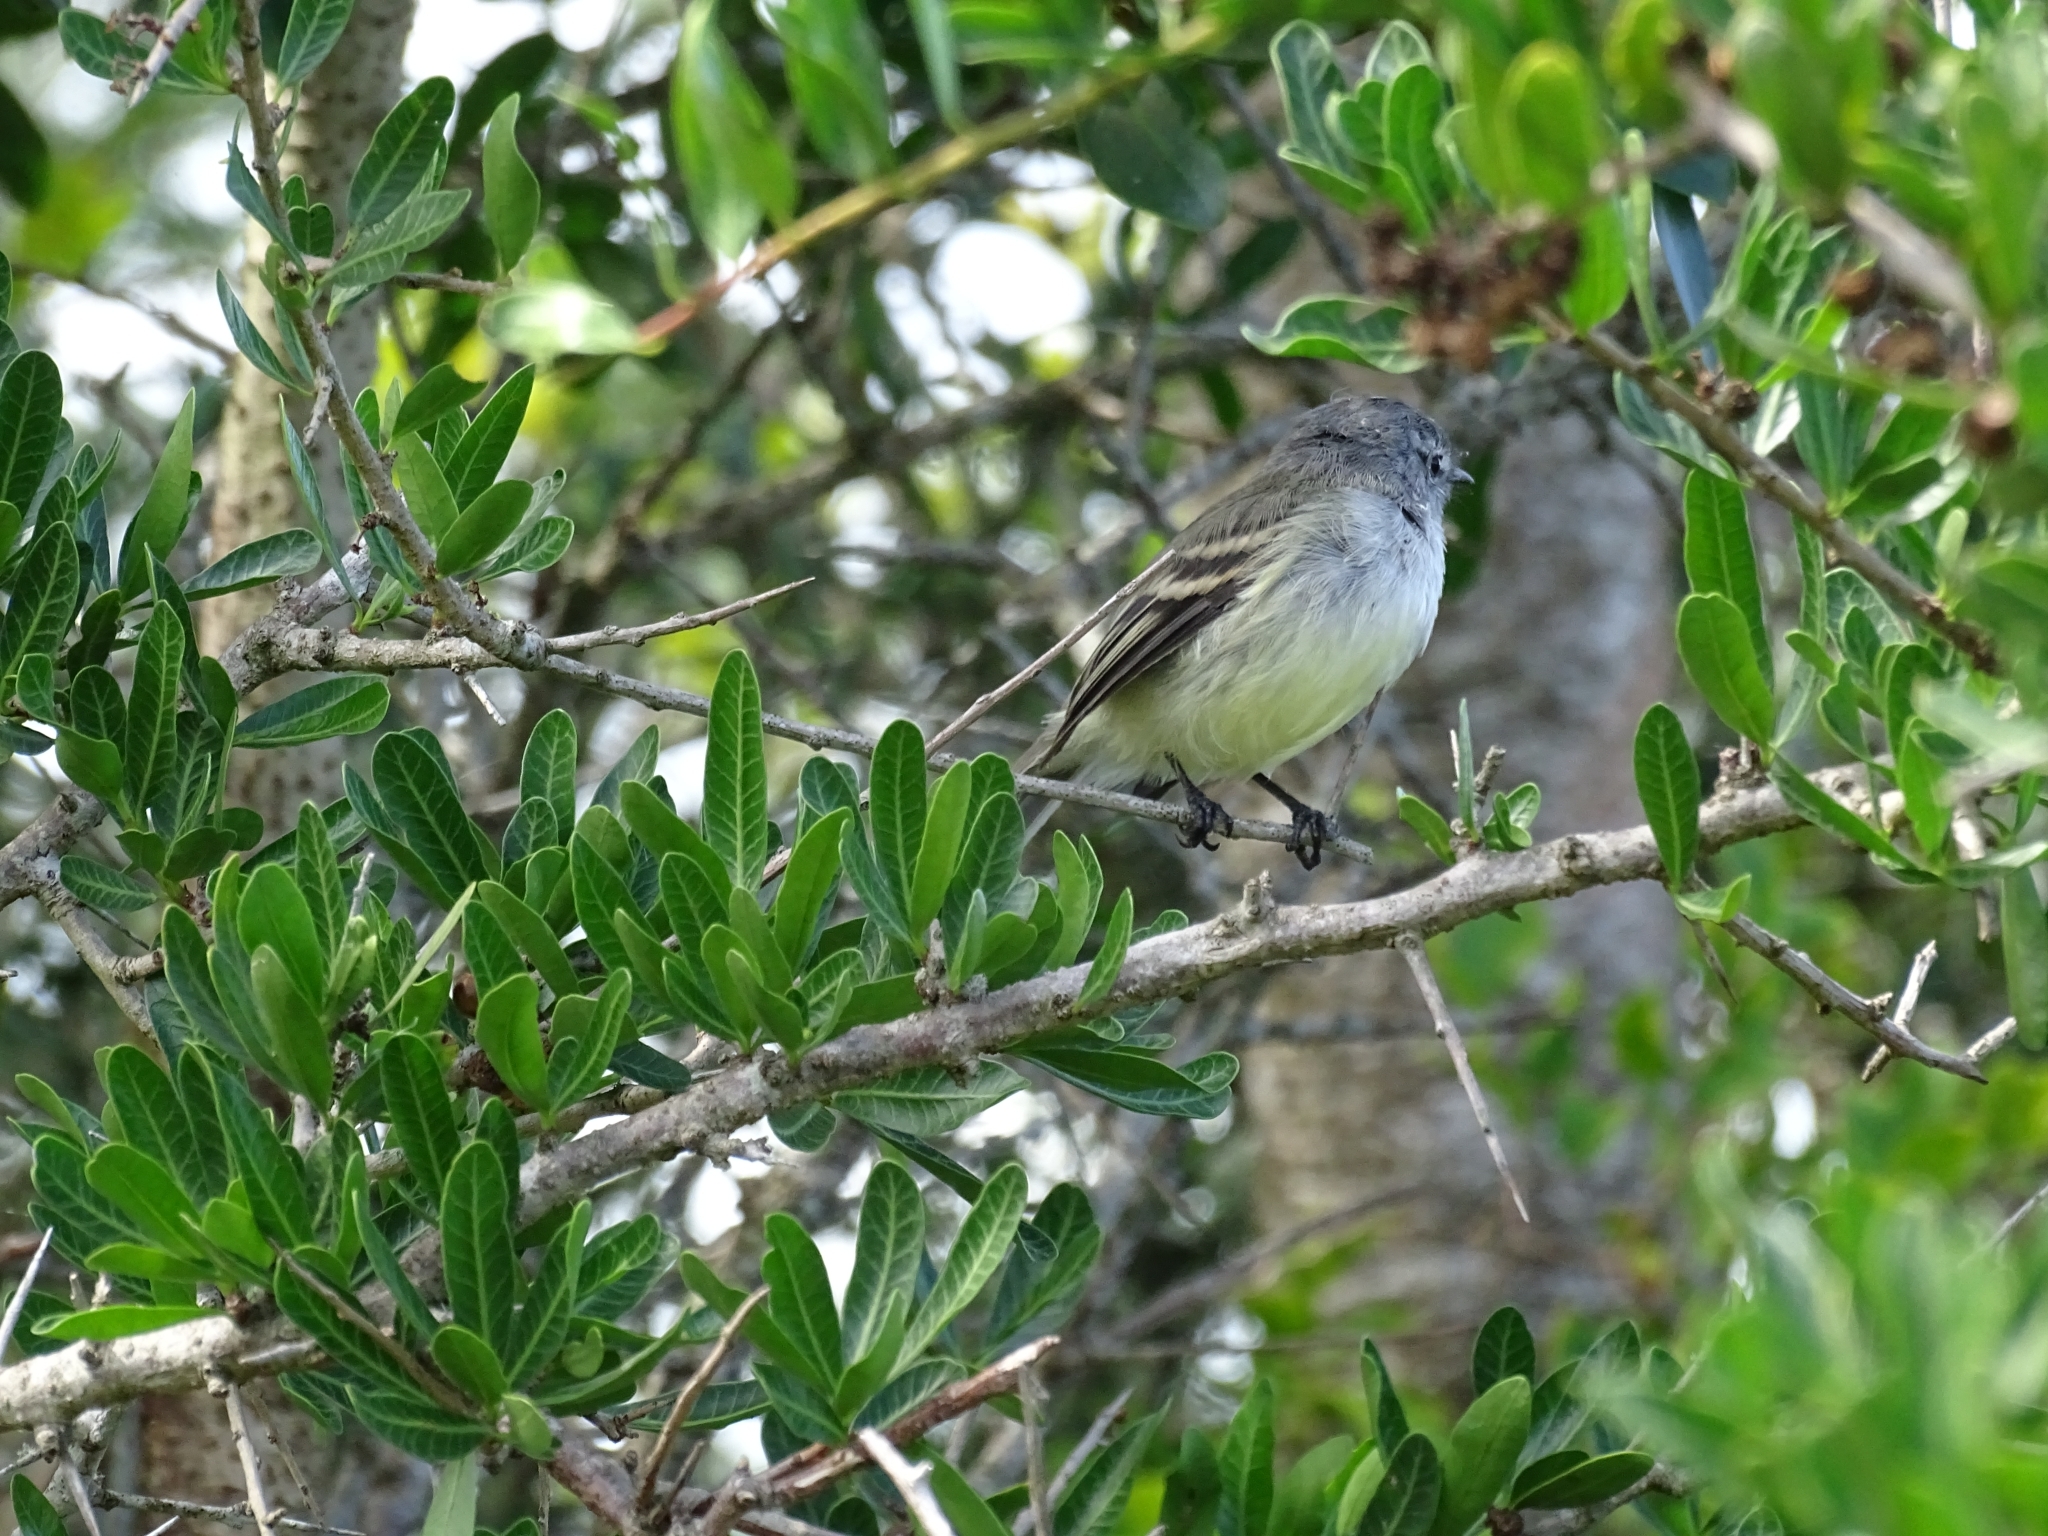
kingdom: Animalia
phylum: Chordata
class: Aves
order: Passeriformes
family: Tyrannidae
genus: Serpophaga
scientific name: Serpophaga subcristata
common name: White-crested tyrannulet
